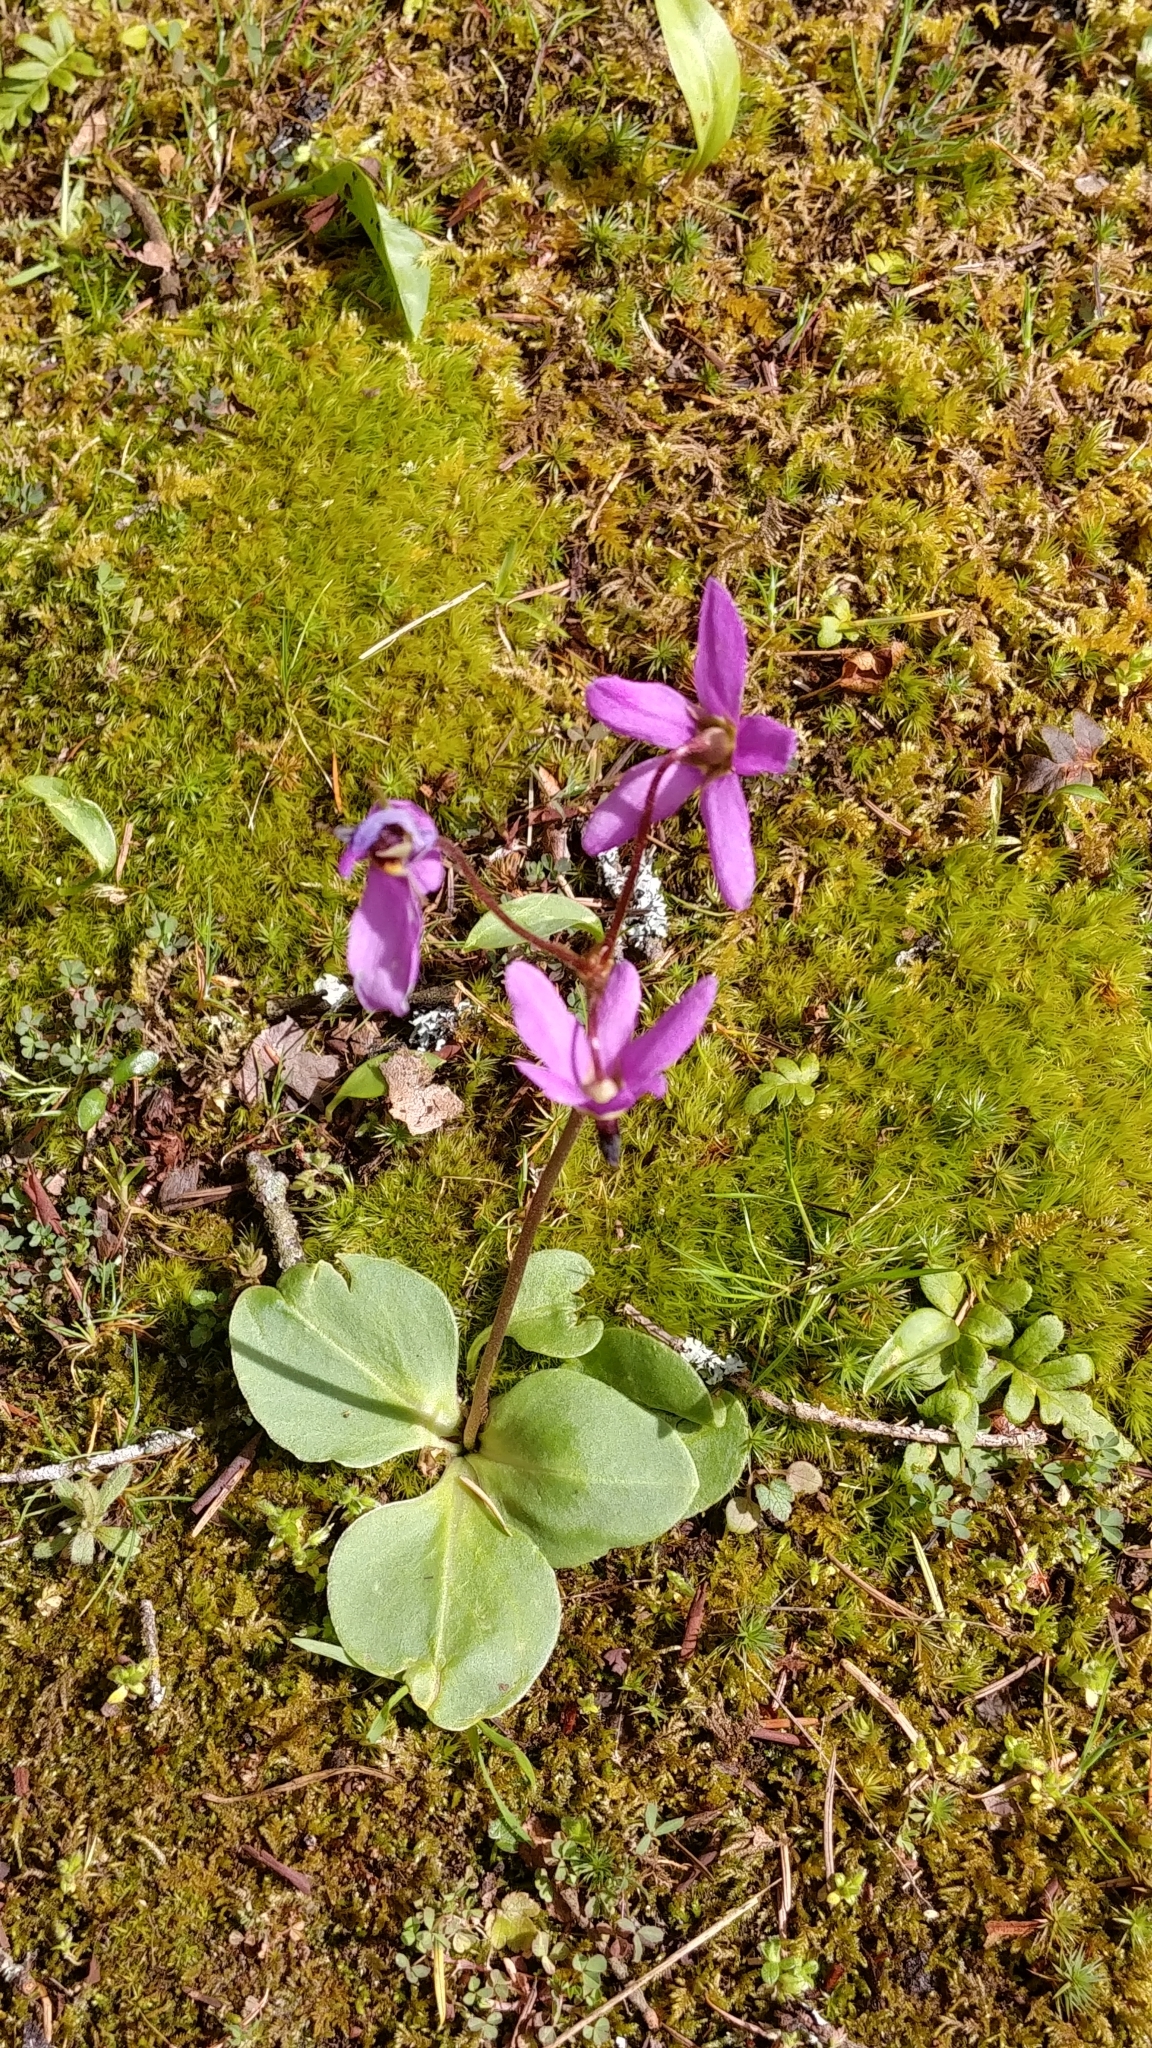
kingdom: Plantae
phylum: Tracheophyta
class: Magnoliopsida
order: Ericales
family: Primulaceae
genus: Dodecatheon
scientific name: Dodecatheon hendersonii
